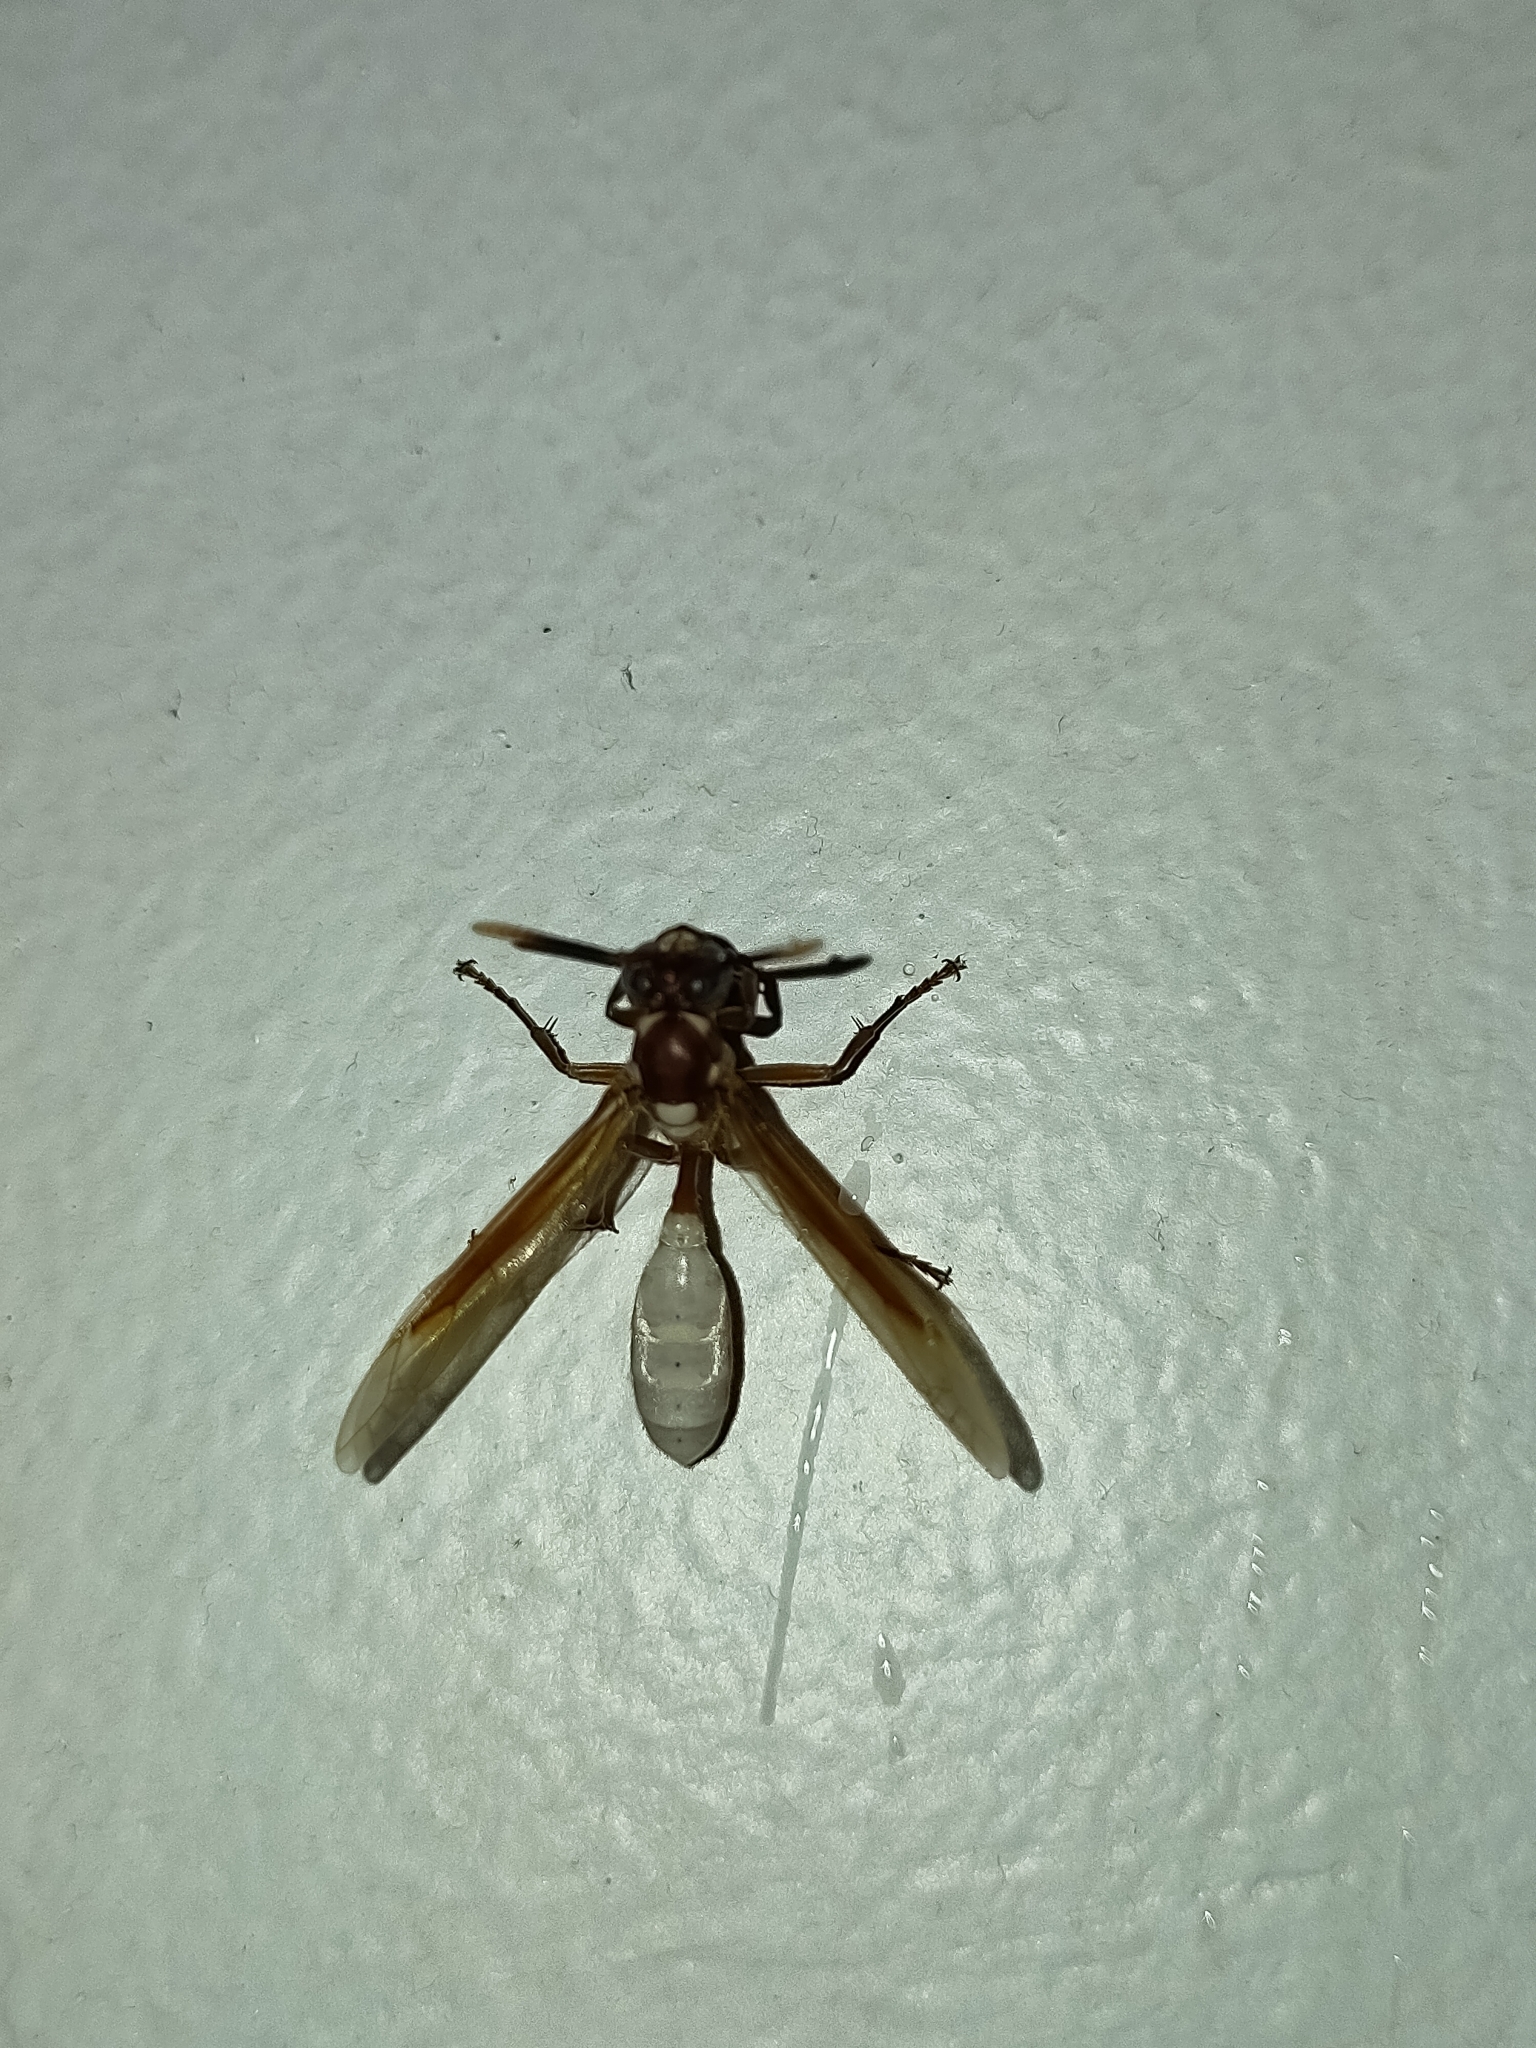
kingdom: Animalia
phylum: Arthropoda
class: Insecta
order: Hymenoptera
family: Vespidae
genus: Apoica
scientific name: Apoica gelida
